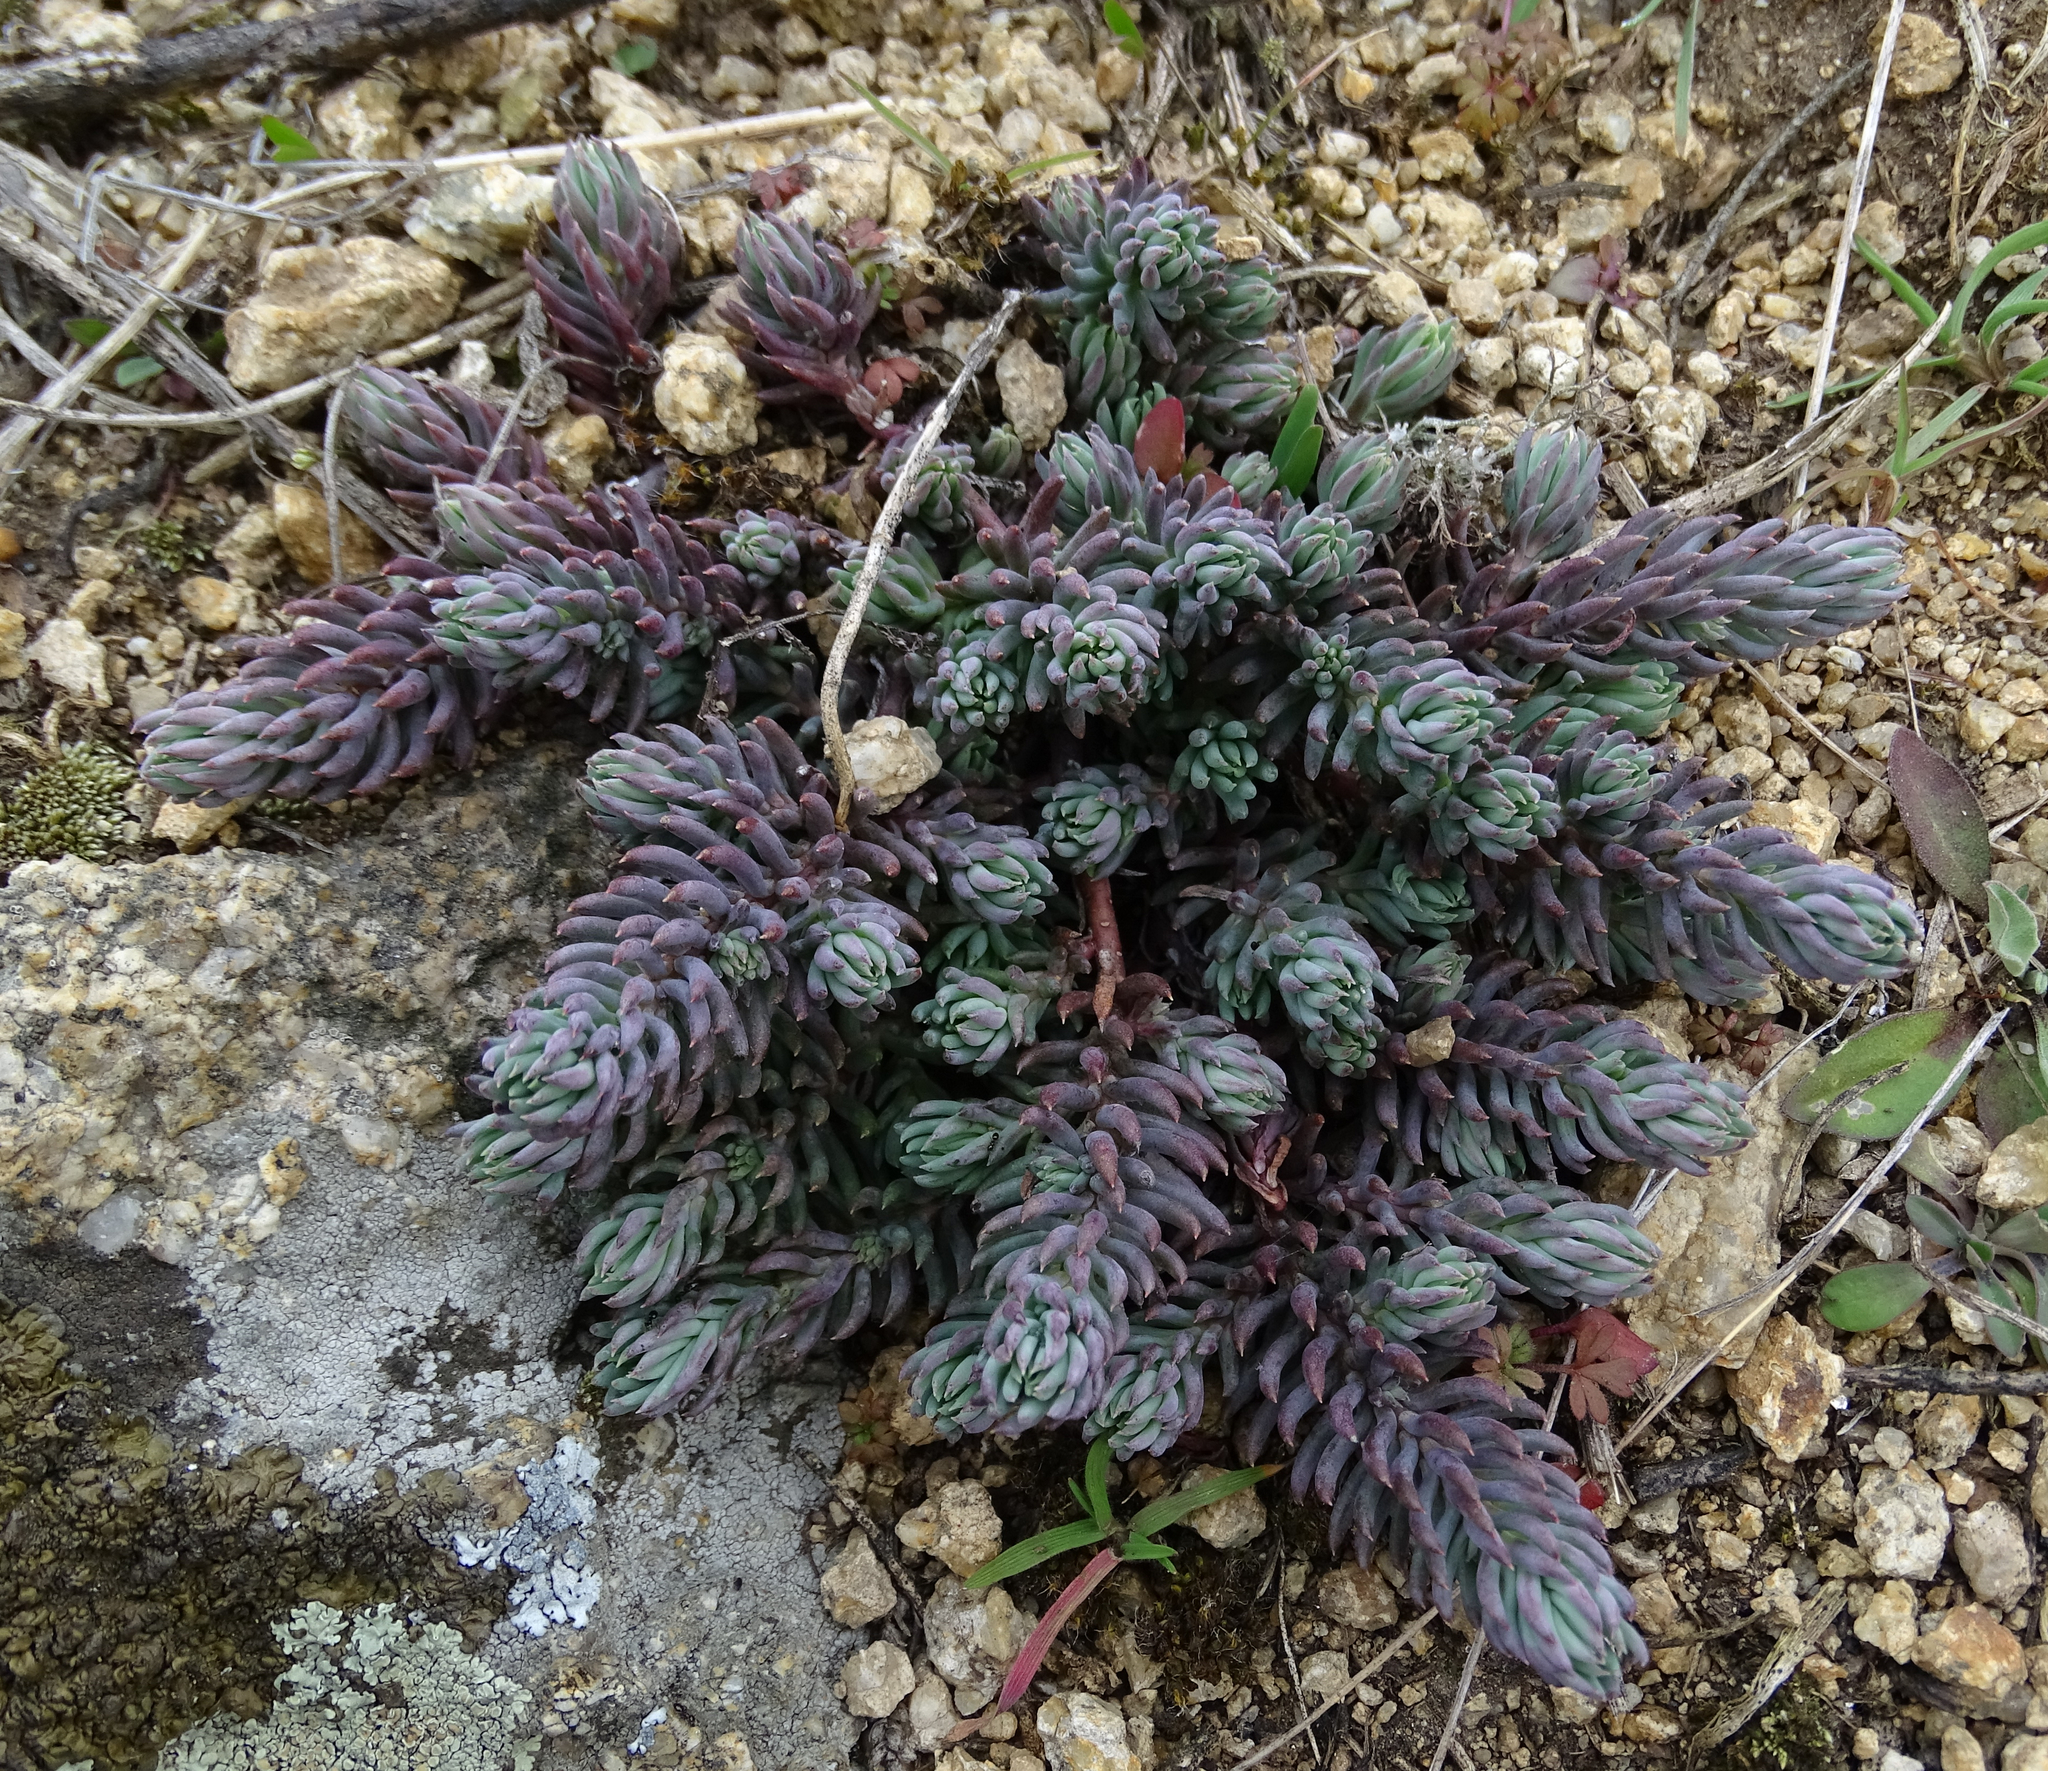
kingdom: Plantae
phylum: Tracheophyta
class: Magnoliopsida
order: Saxifragales
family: Crassulaceae
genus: Petrosedum
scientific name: Petrosedum rupestre
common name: Jenny's stonecrop
